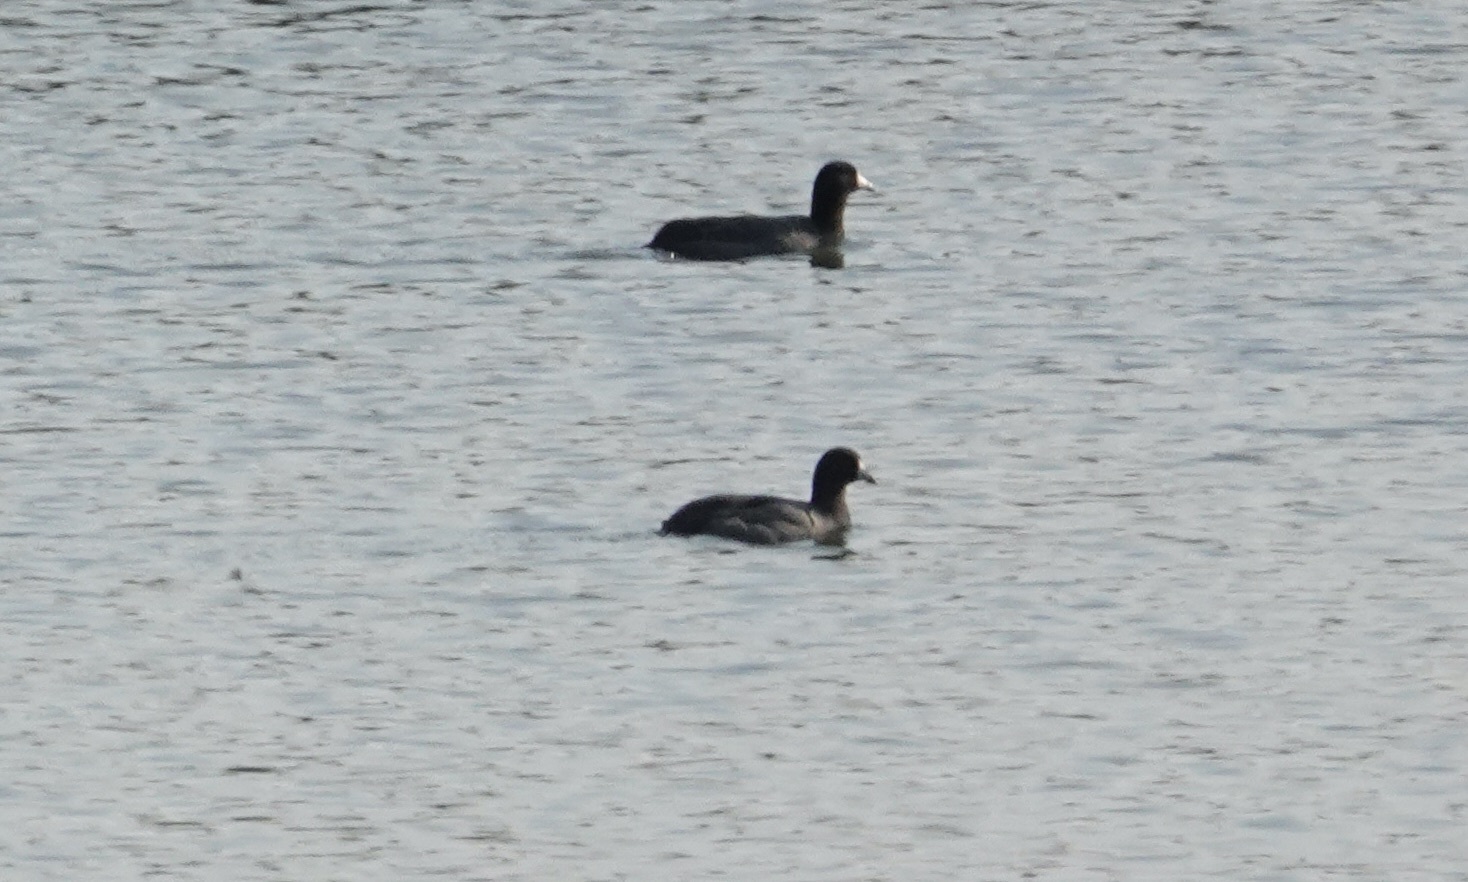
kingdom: Animalia
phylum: Chordata
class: Aves
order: Gruiformes
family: Rallidae
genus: Fulica
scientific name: Fulica americana
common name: American coot
